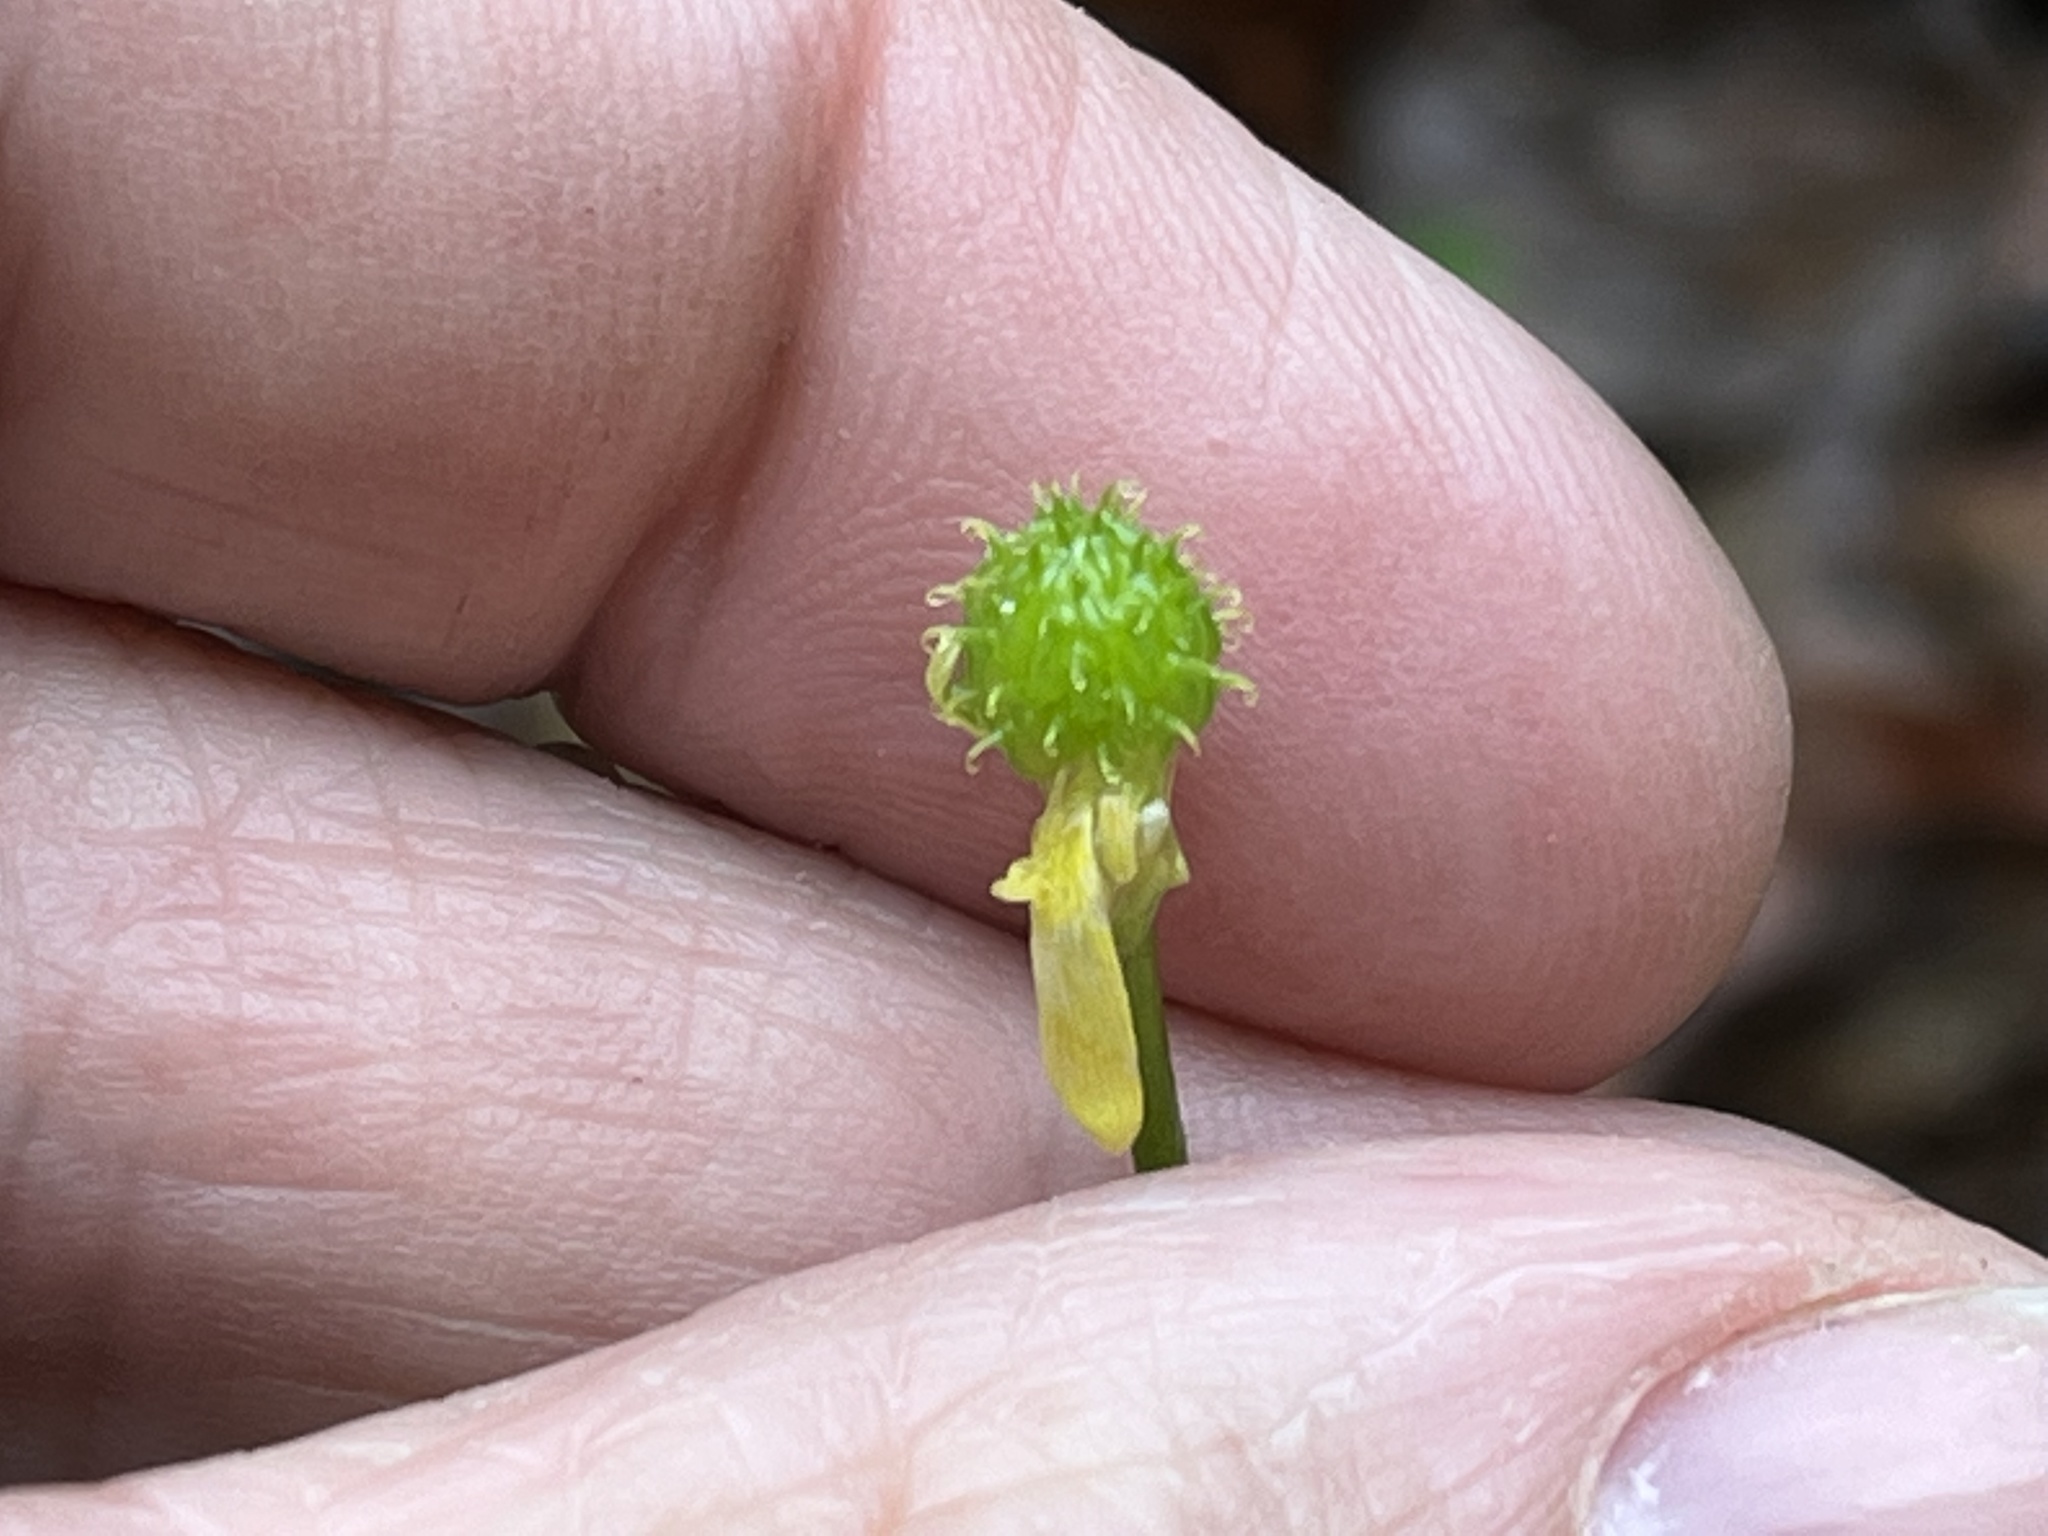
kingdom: Plantae
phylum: Tracheophyta
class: Magnoliopsida
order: Ranunculales
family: Ranunculaceae
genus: Ranunculus
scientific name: Ranunculus recurvatus
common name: Blisterwort
